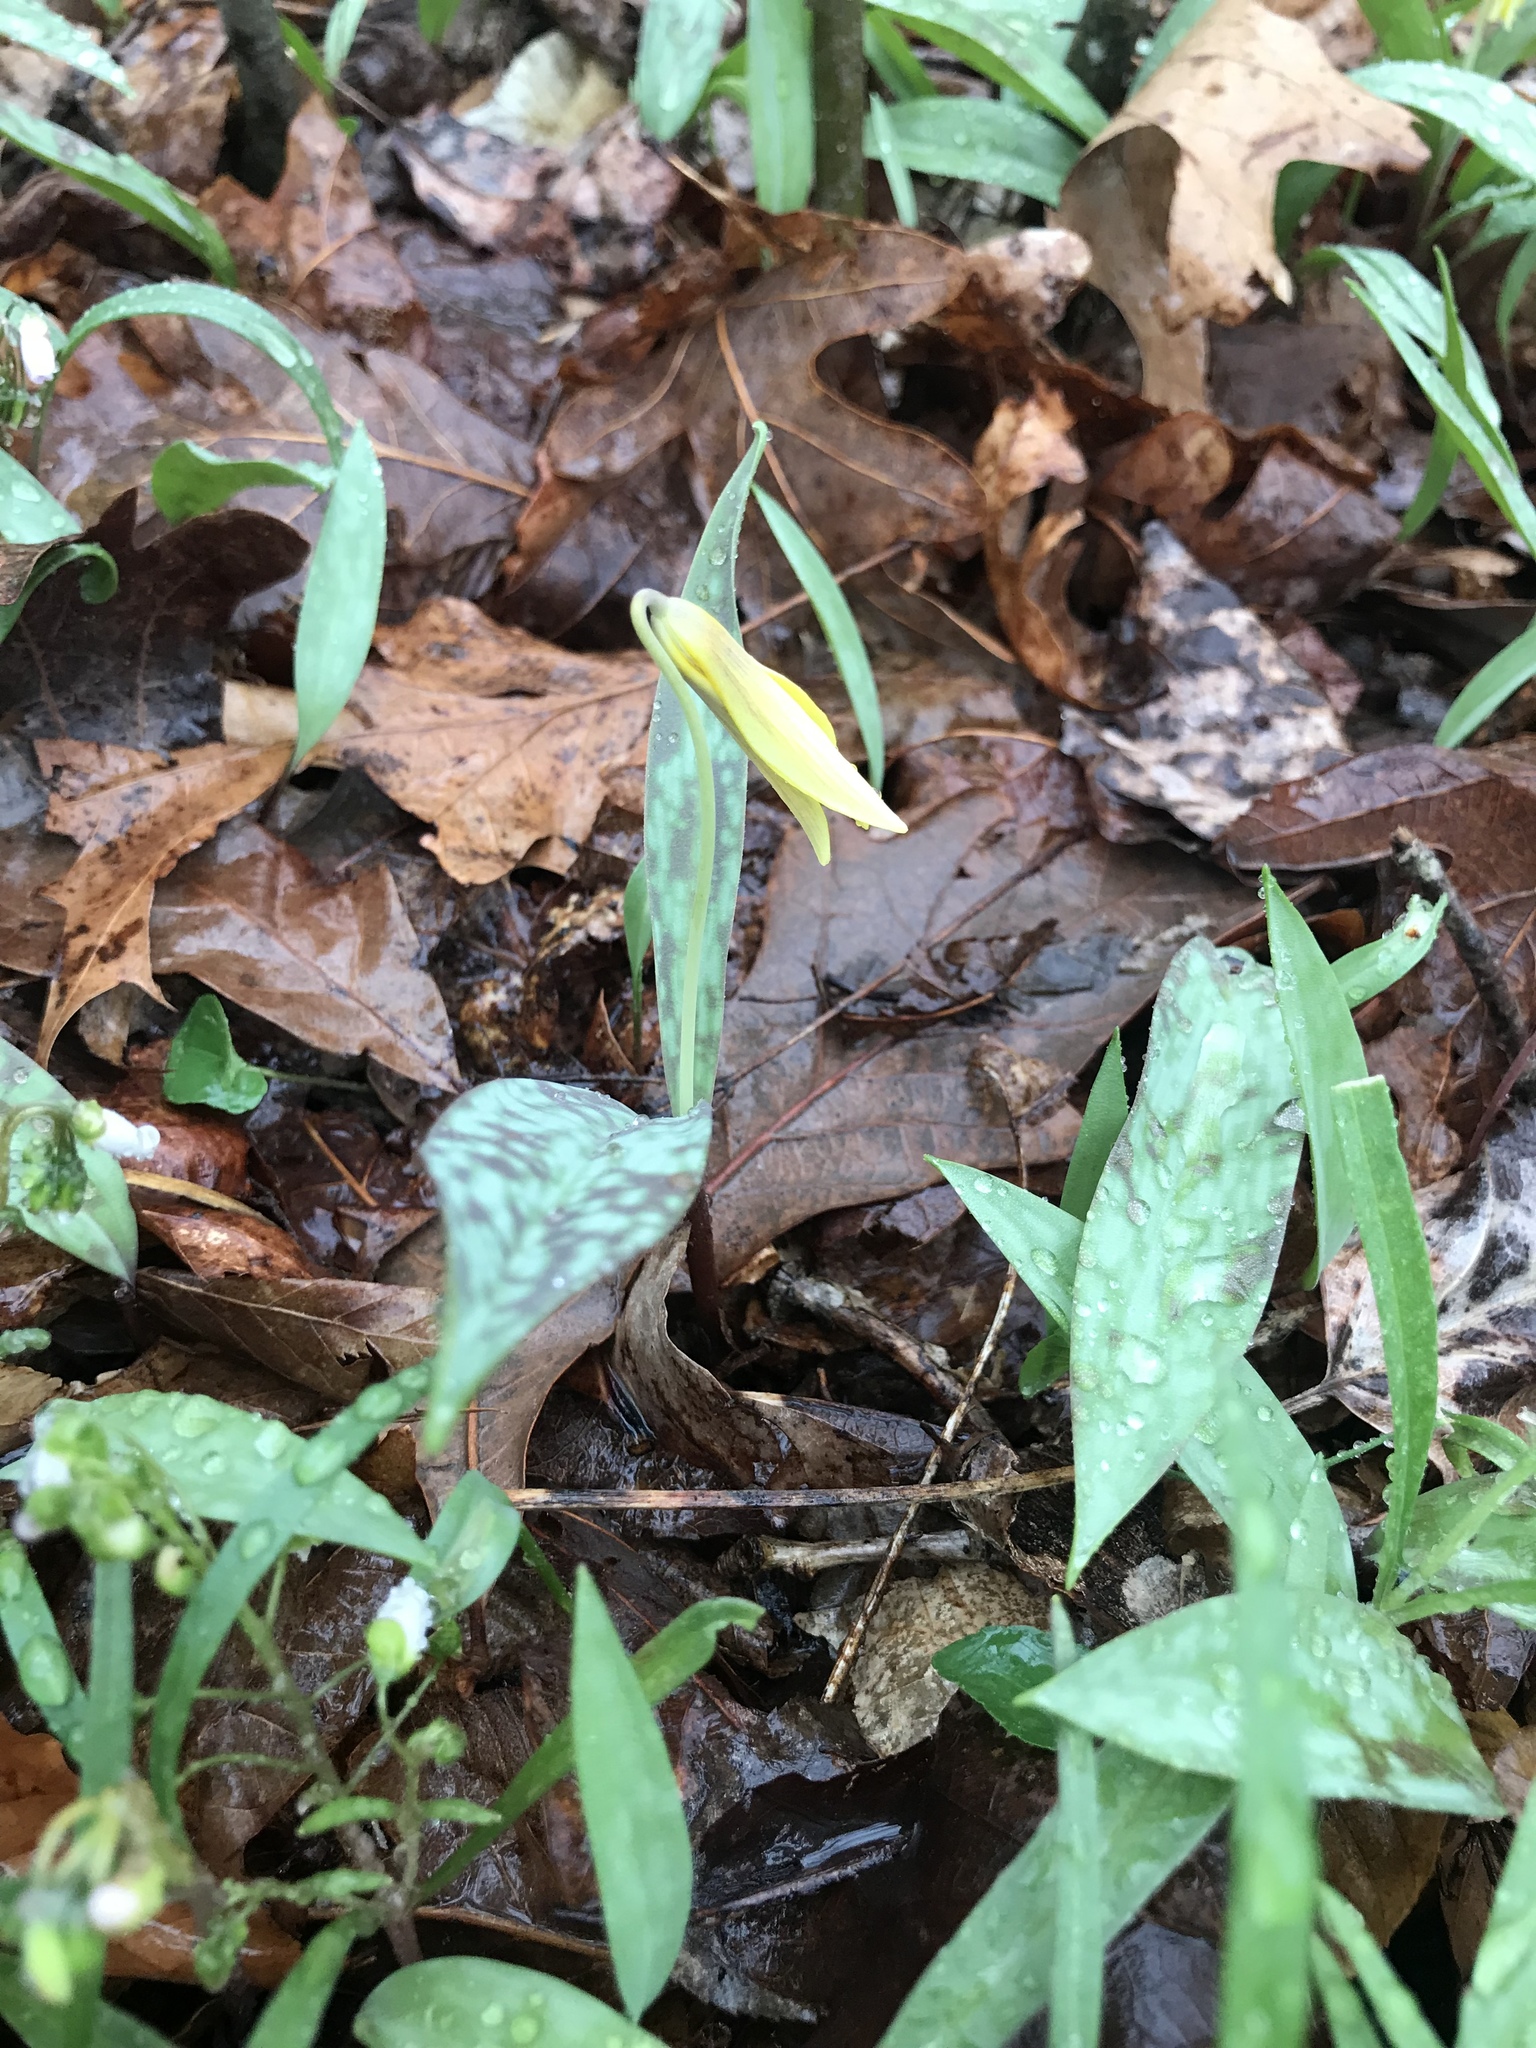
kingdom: Plantae
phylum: Tracheophyta
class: Liliopsida
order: Liliales
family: Liliaceae
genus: Erythronium
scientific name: Erythronium americanum
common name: Yellow adder's-tongue
